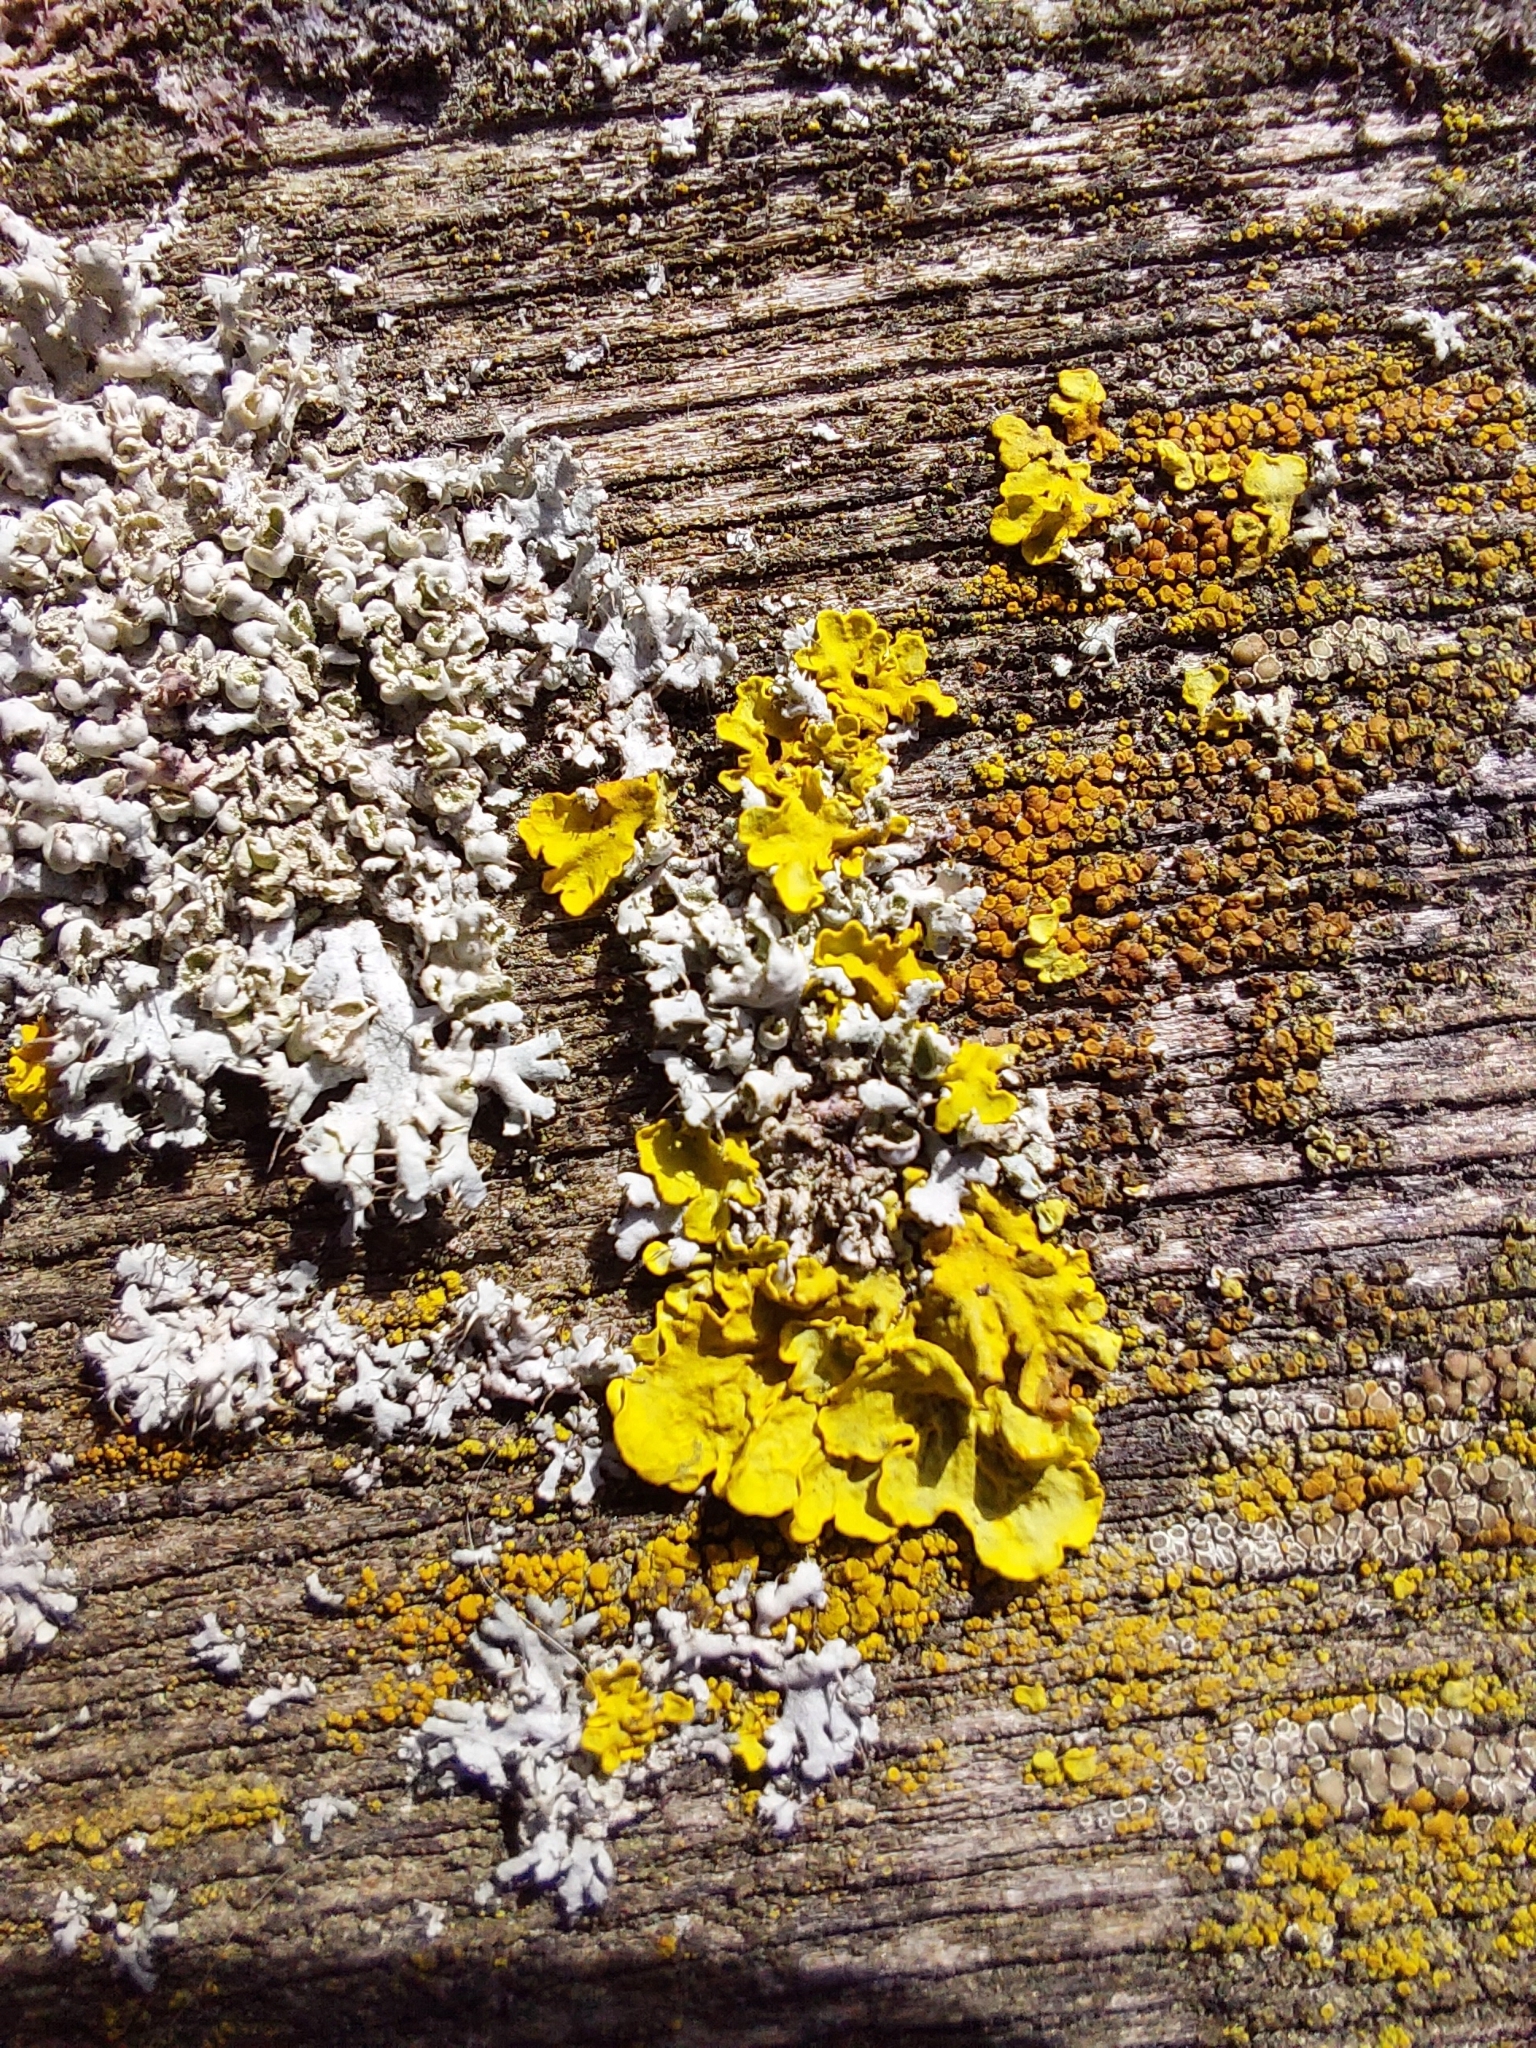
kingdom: Fungi
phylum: Ascomycota
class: Lecanoromycetes
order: Teloschistales
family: Teloschistaceae
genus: Xanthoria
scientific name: Xanthoria parietina
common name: Common orange lichen
